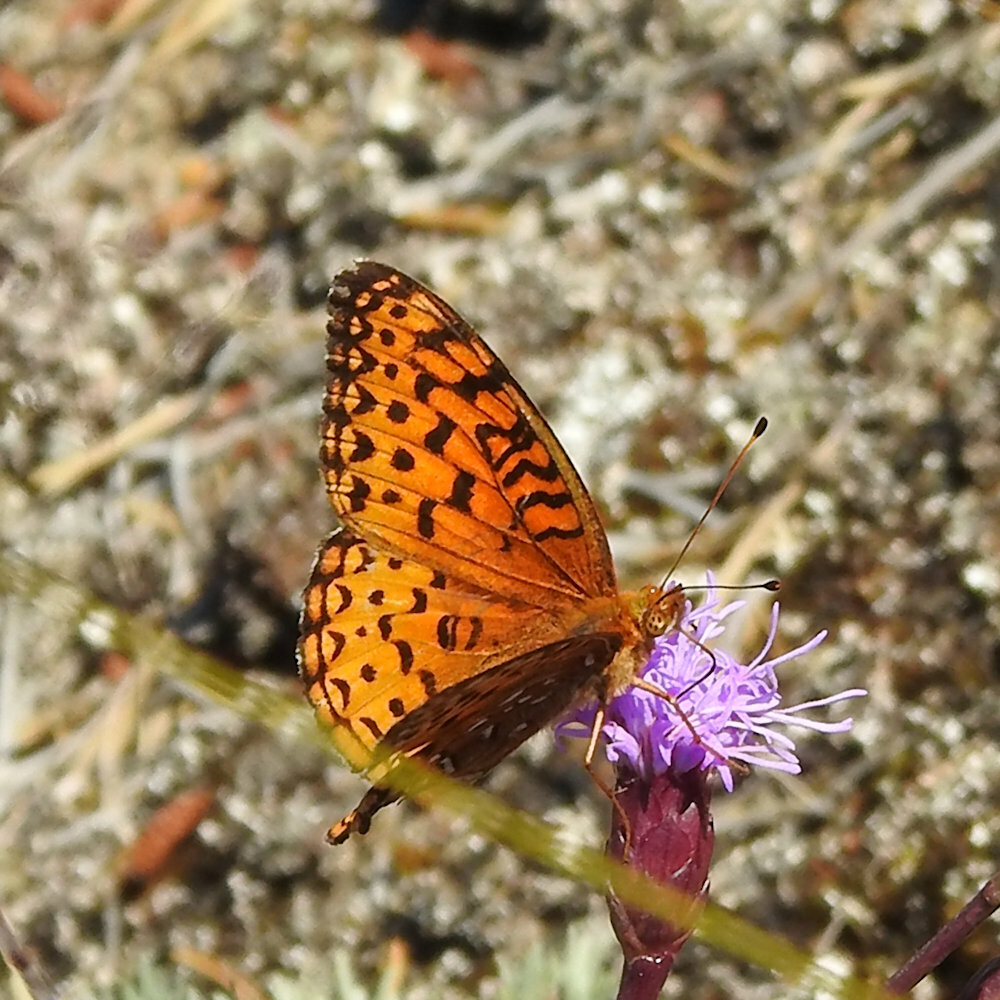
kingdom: Animalia
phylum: Arthropoda
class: Insecta
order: Lepidoptera
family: Nymphalidae
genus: Speyeria
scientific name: Speyeria aphrodite
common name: Aphrodite friitllary
